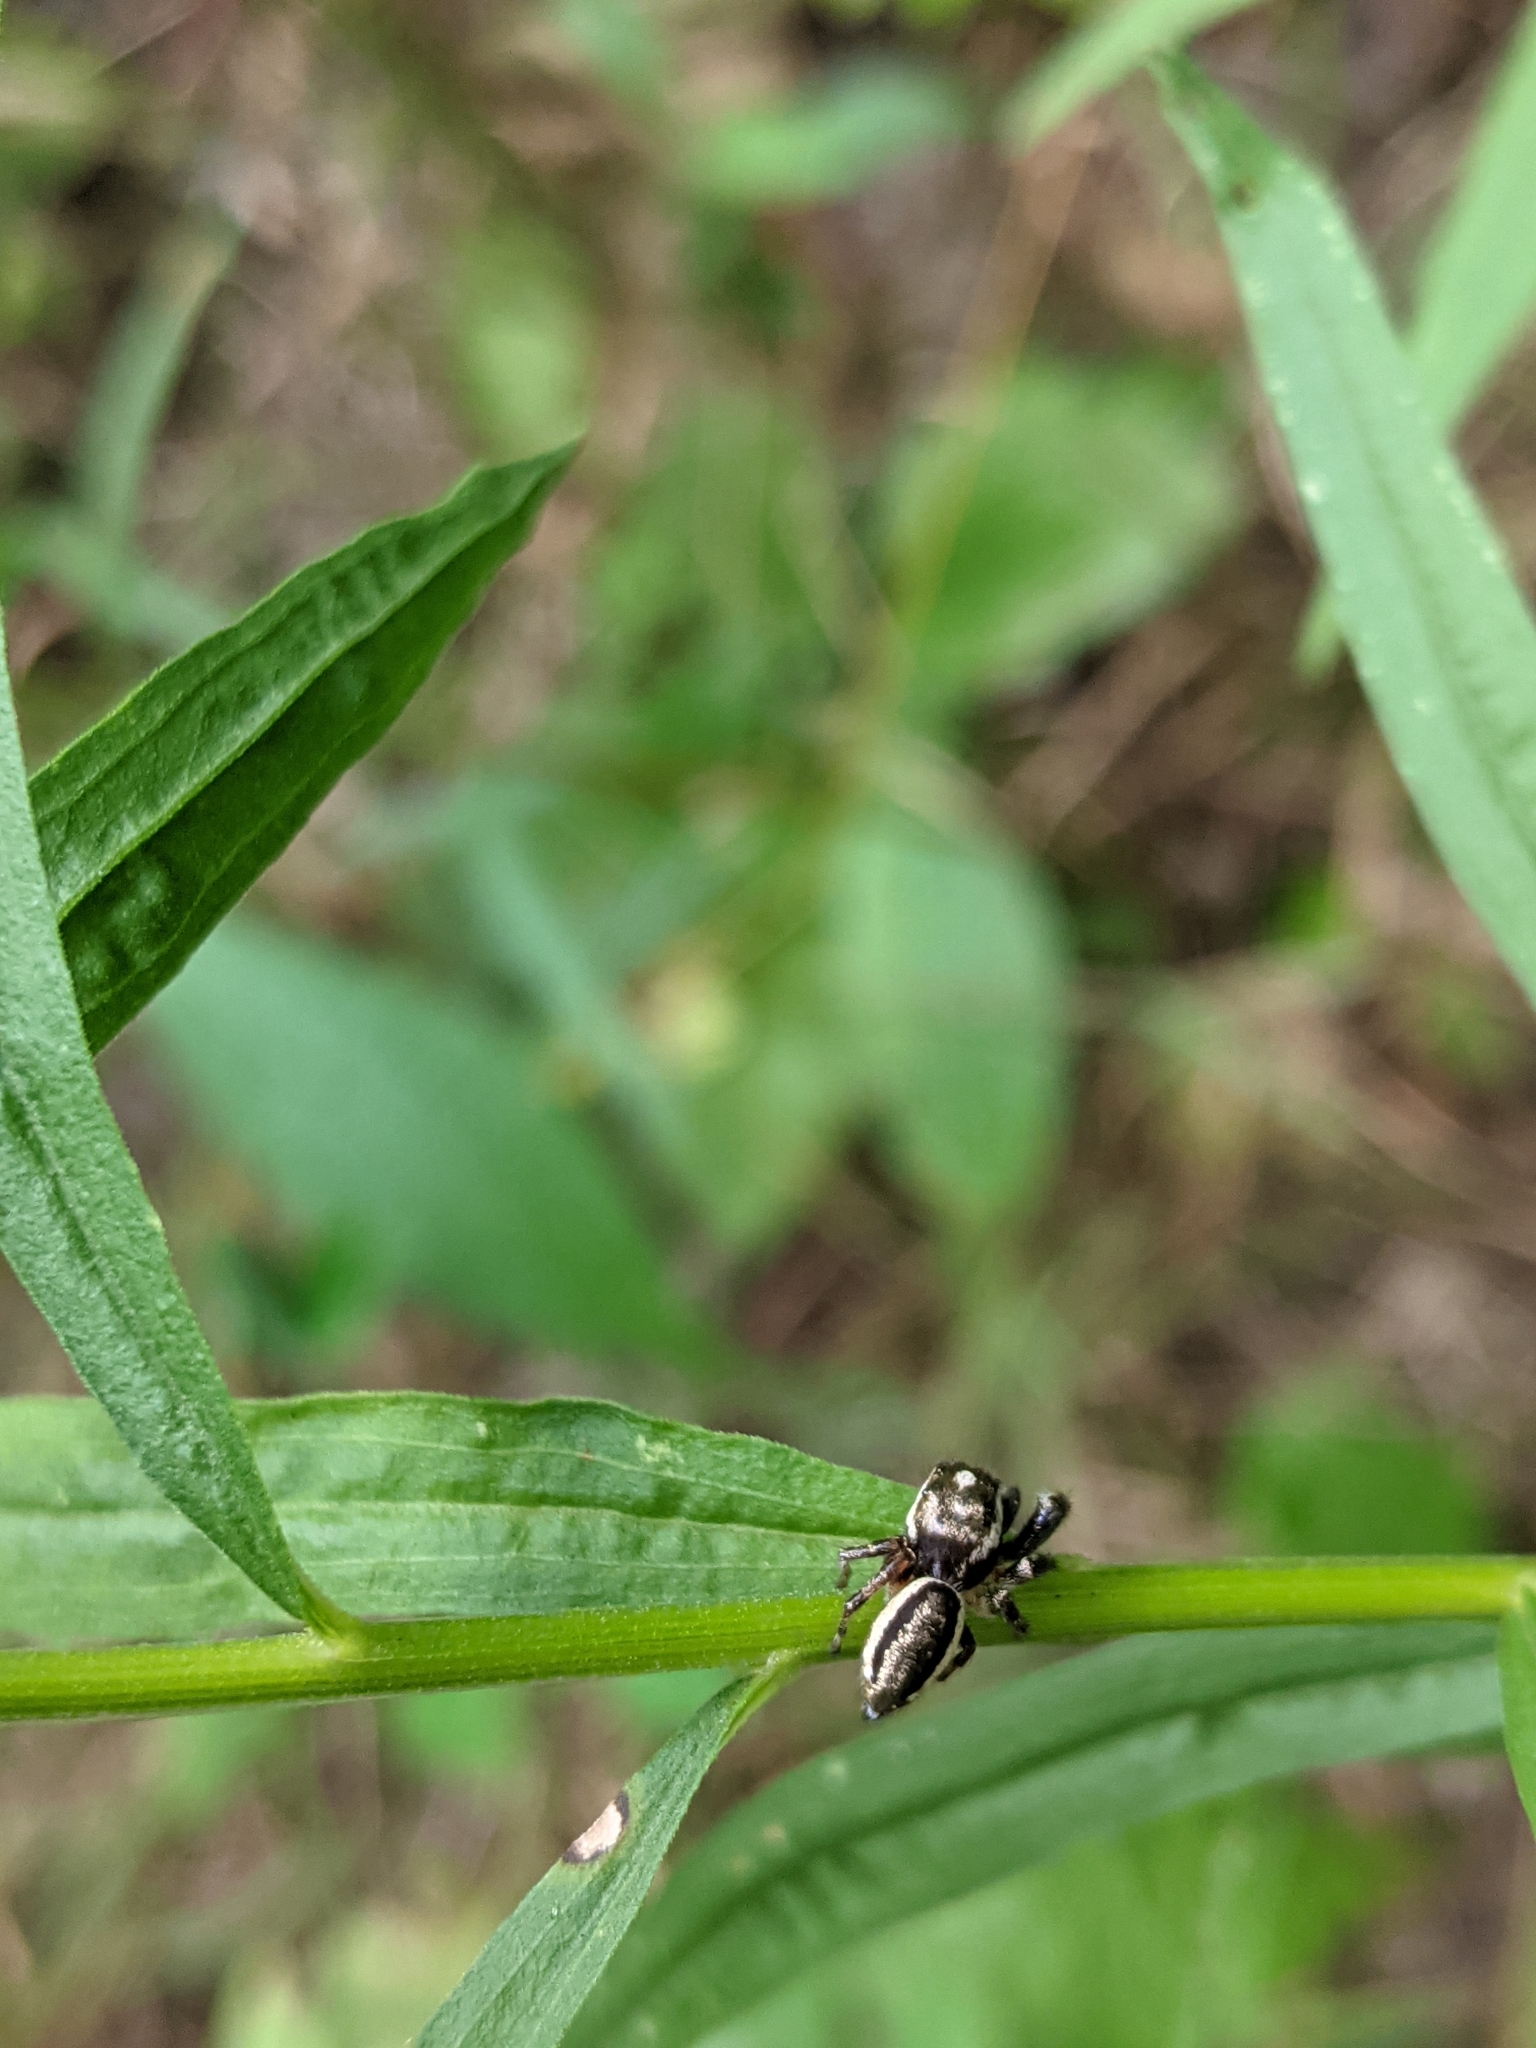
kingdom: Animalia
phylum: Arthropoda
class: Arachnida
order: Araneae
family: Salticidae
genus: Eris
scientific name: Eris militaris
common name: Bronze jumper
